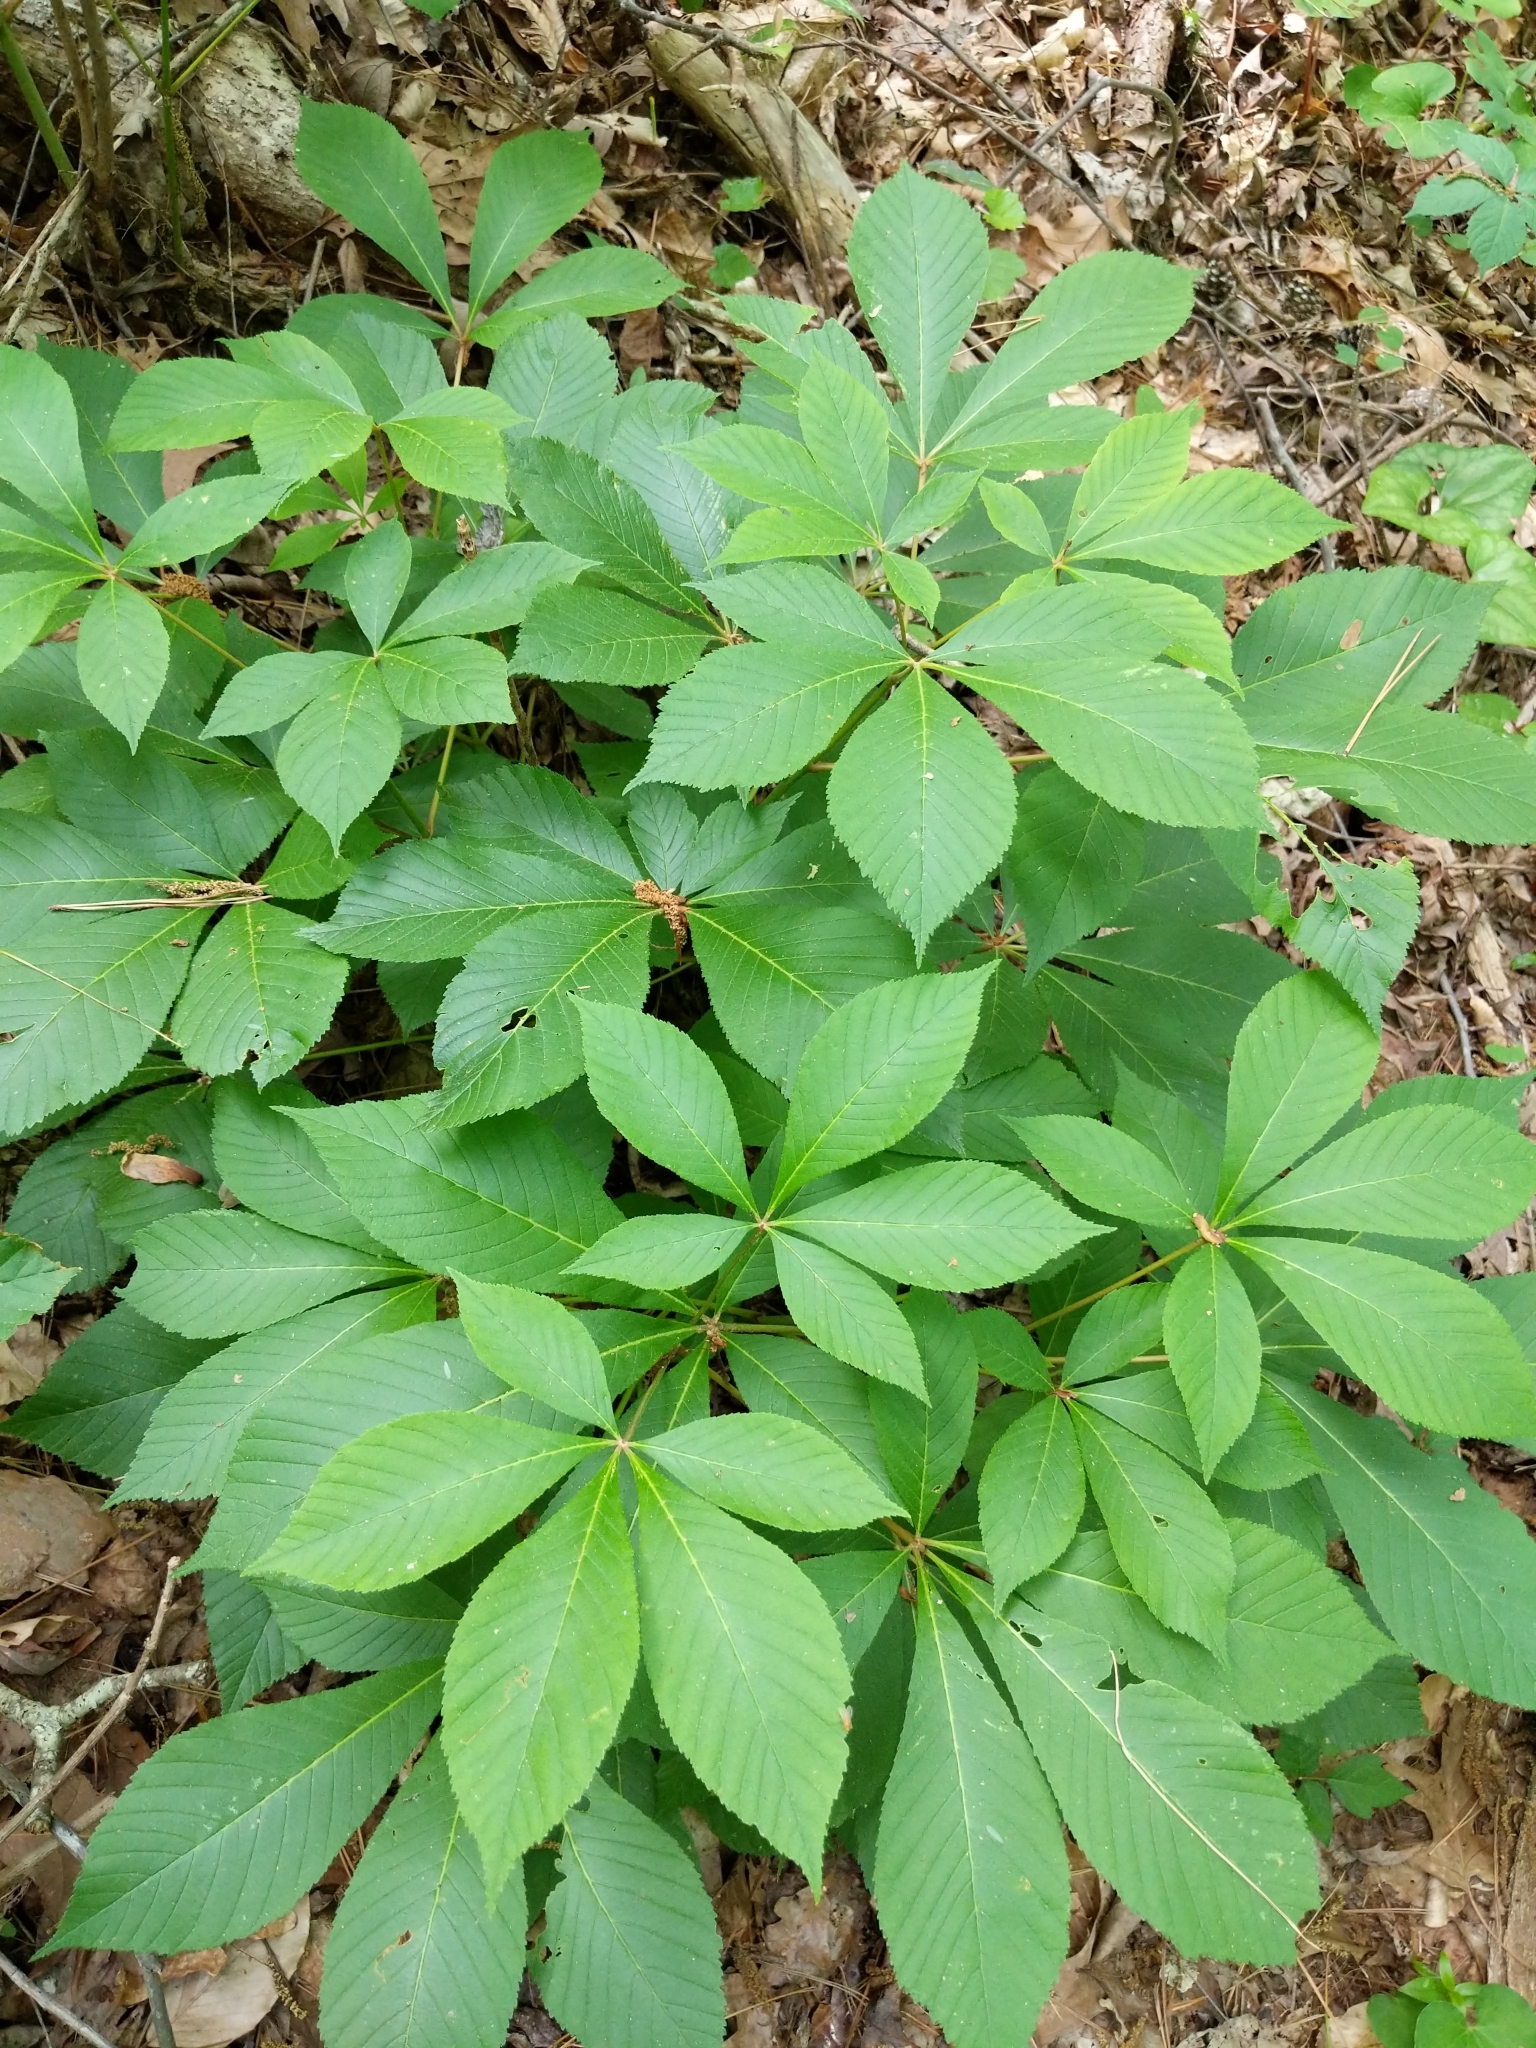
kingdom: Plantae
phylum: Tracheophyta
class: Magnoliopsida
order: Sapindales
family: Sapindaceae
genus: Aesculus
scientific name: Aesculus pavia
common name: Red buckeye
